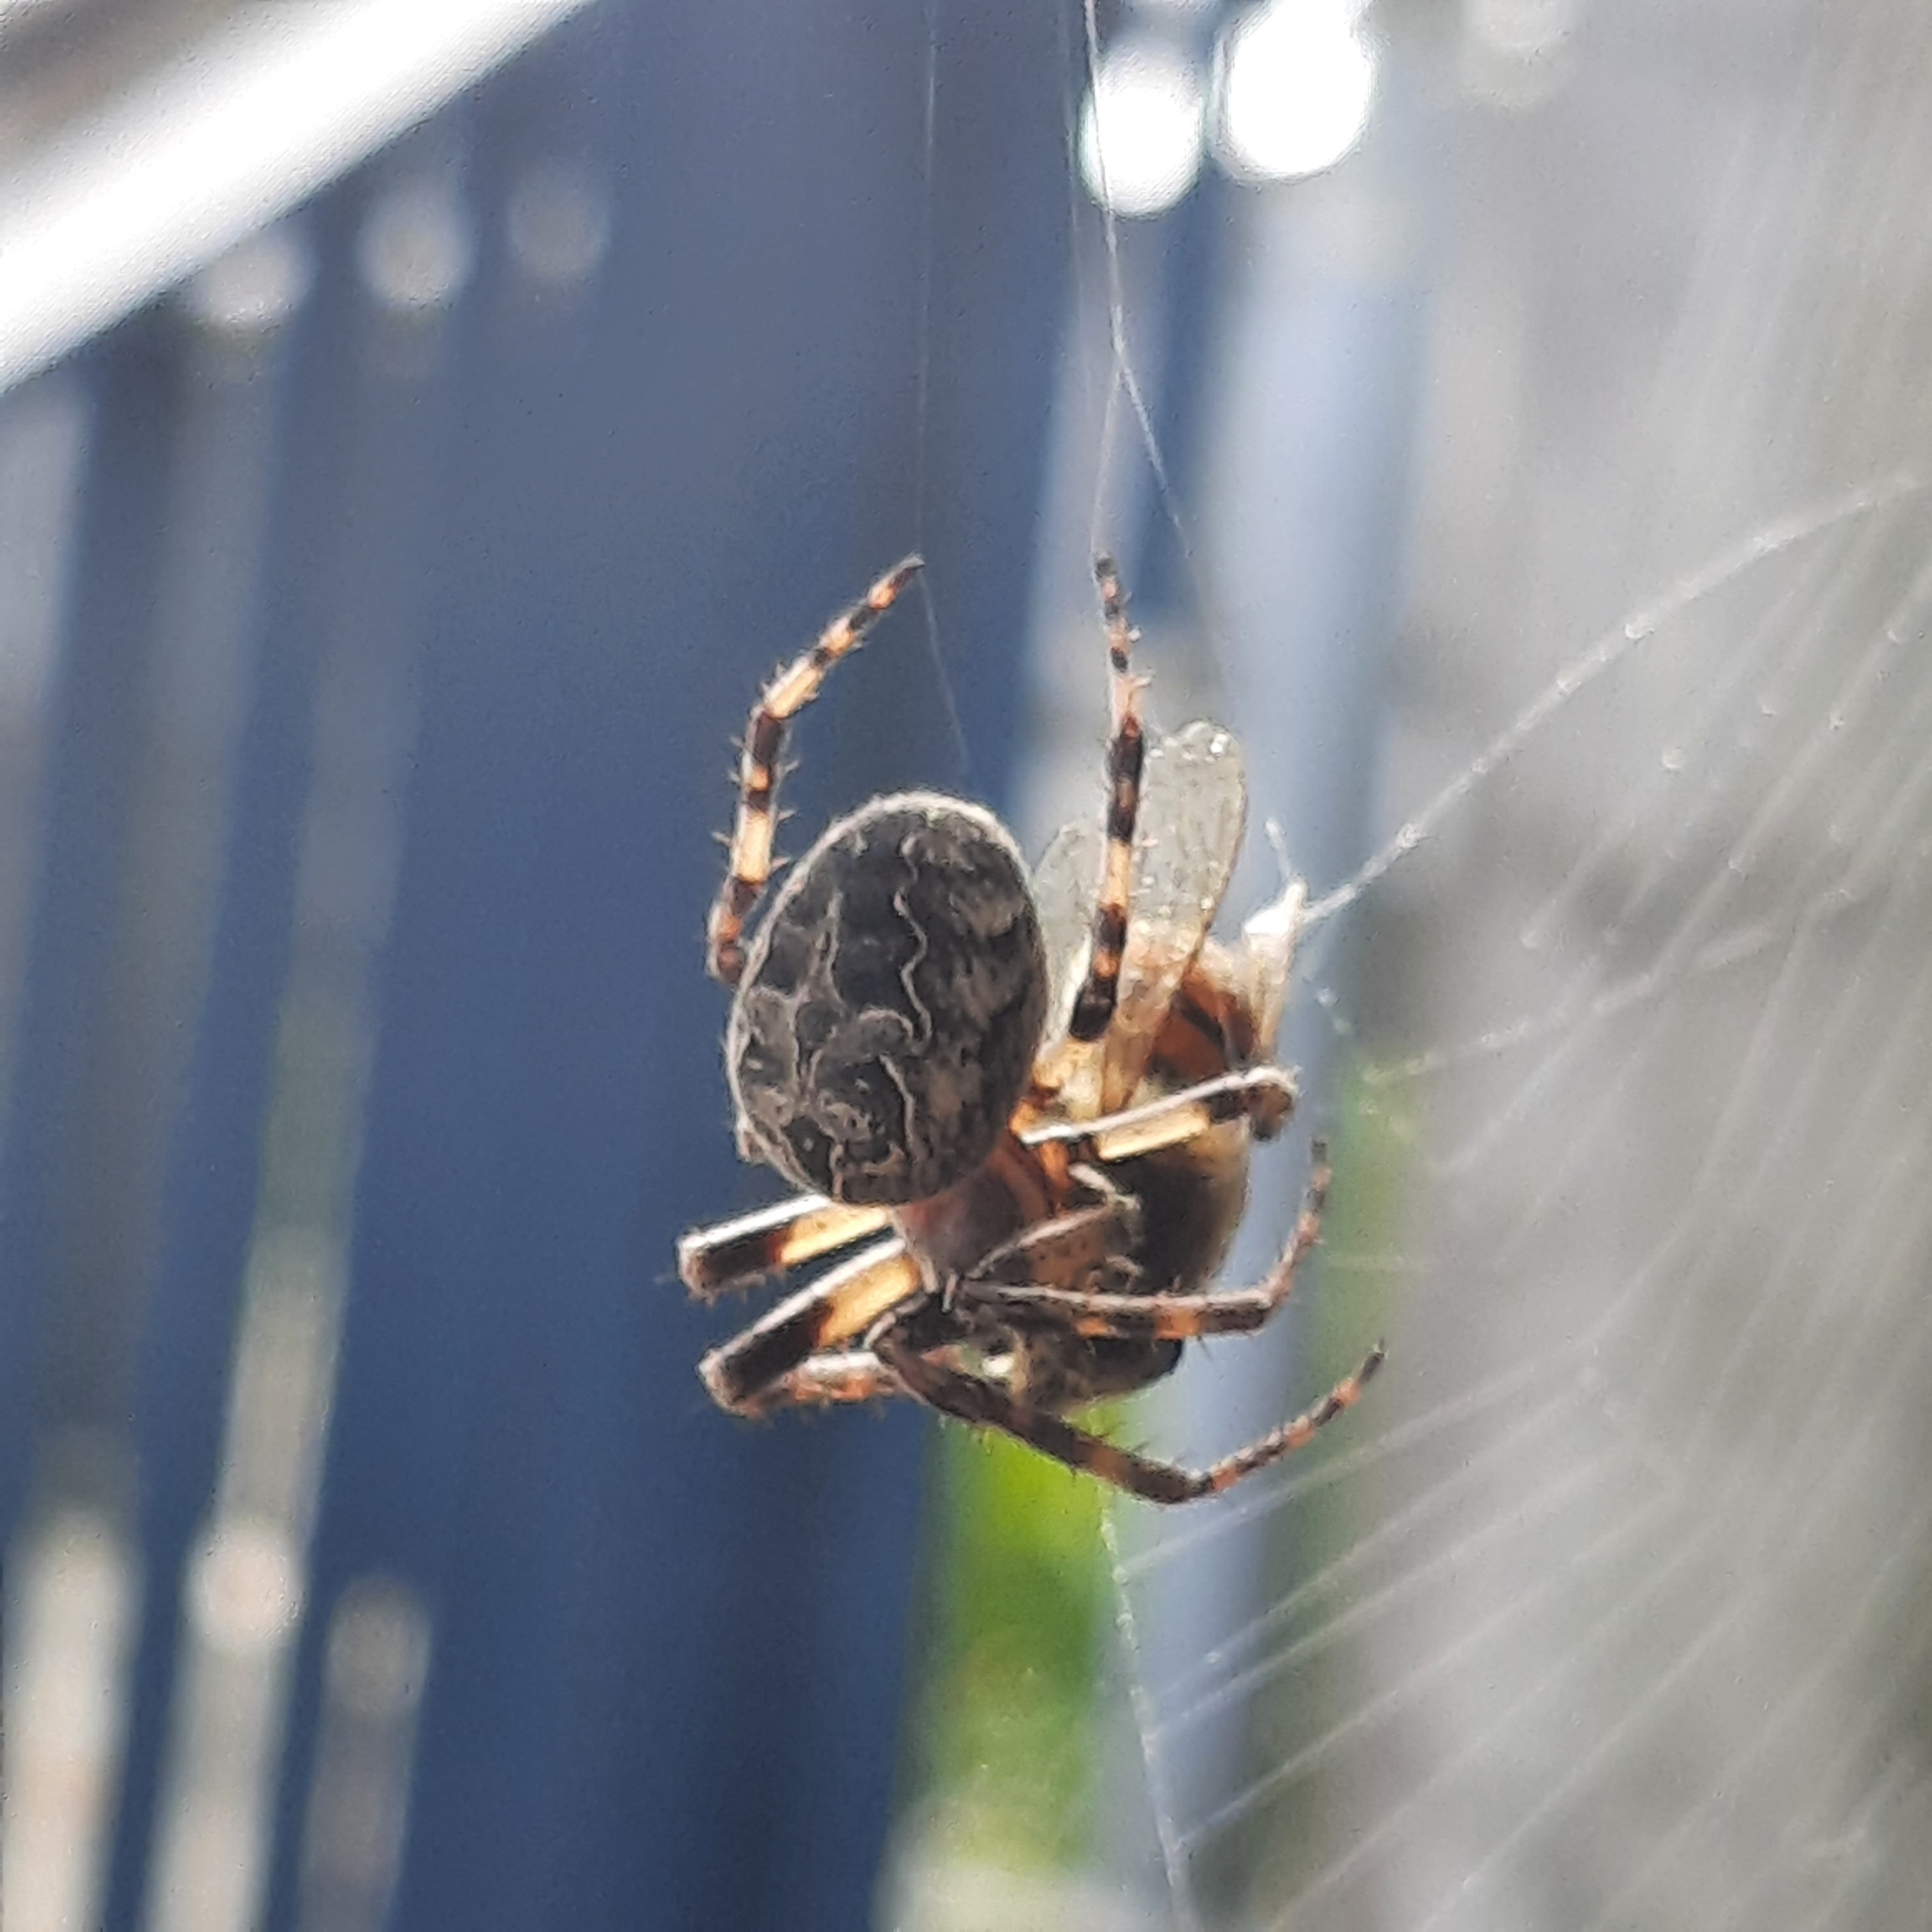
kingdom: Animalia
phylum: Arthropoda
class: Arachnida
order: Araneae
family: Araneidae
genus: Larinioides
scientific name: Larinioides sclopetarius
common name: Bridge orbweaver
